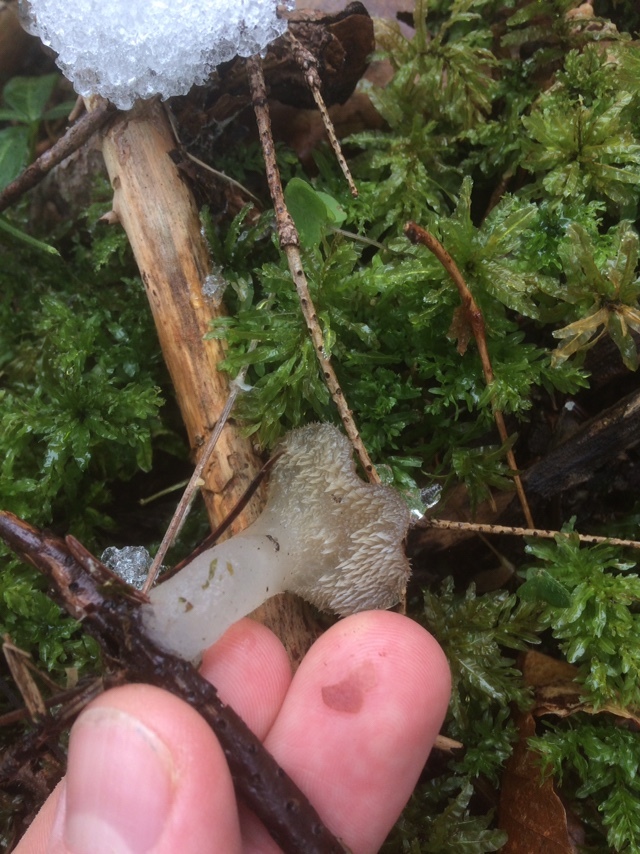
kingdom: Fungi
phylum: Basidiomycota
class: Agaricomycetes
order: Auriculariales
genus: Pseudohydnum
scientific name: Pseudohydnum gelatinosum
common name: Jelly tongue
